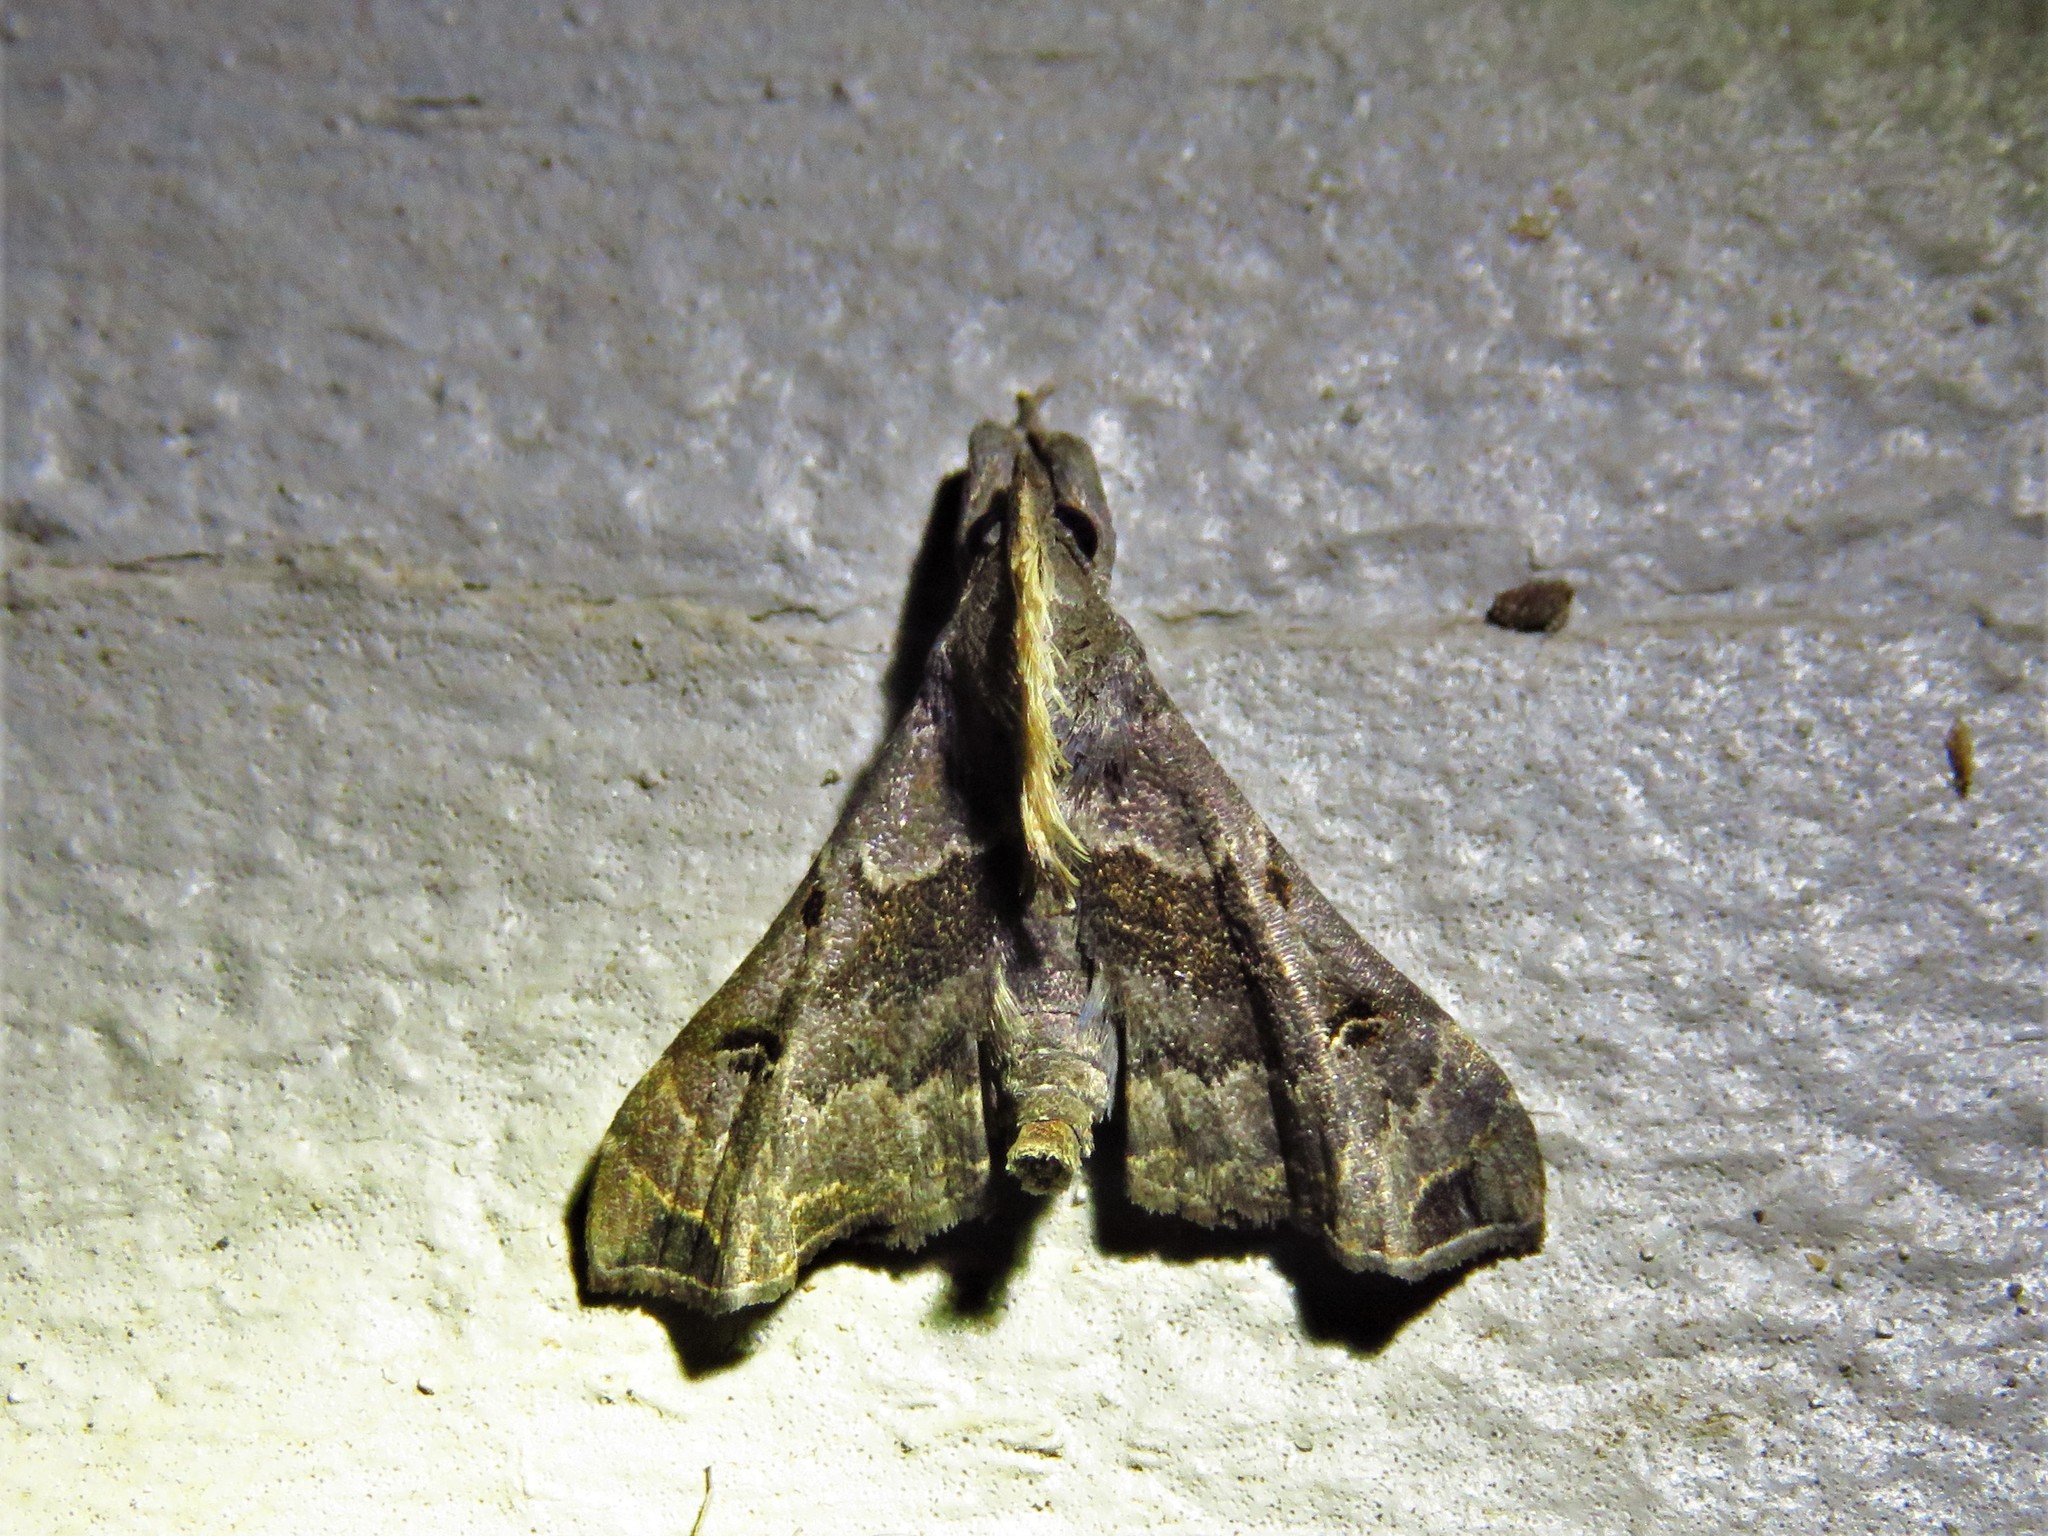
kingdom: Animalia
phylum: Arthropoda
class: Insecta
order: Lepidoptera
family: Erebidae
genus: Palthis
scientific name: Palthis asopialis
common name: Faint-spotted palthis moth
